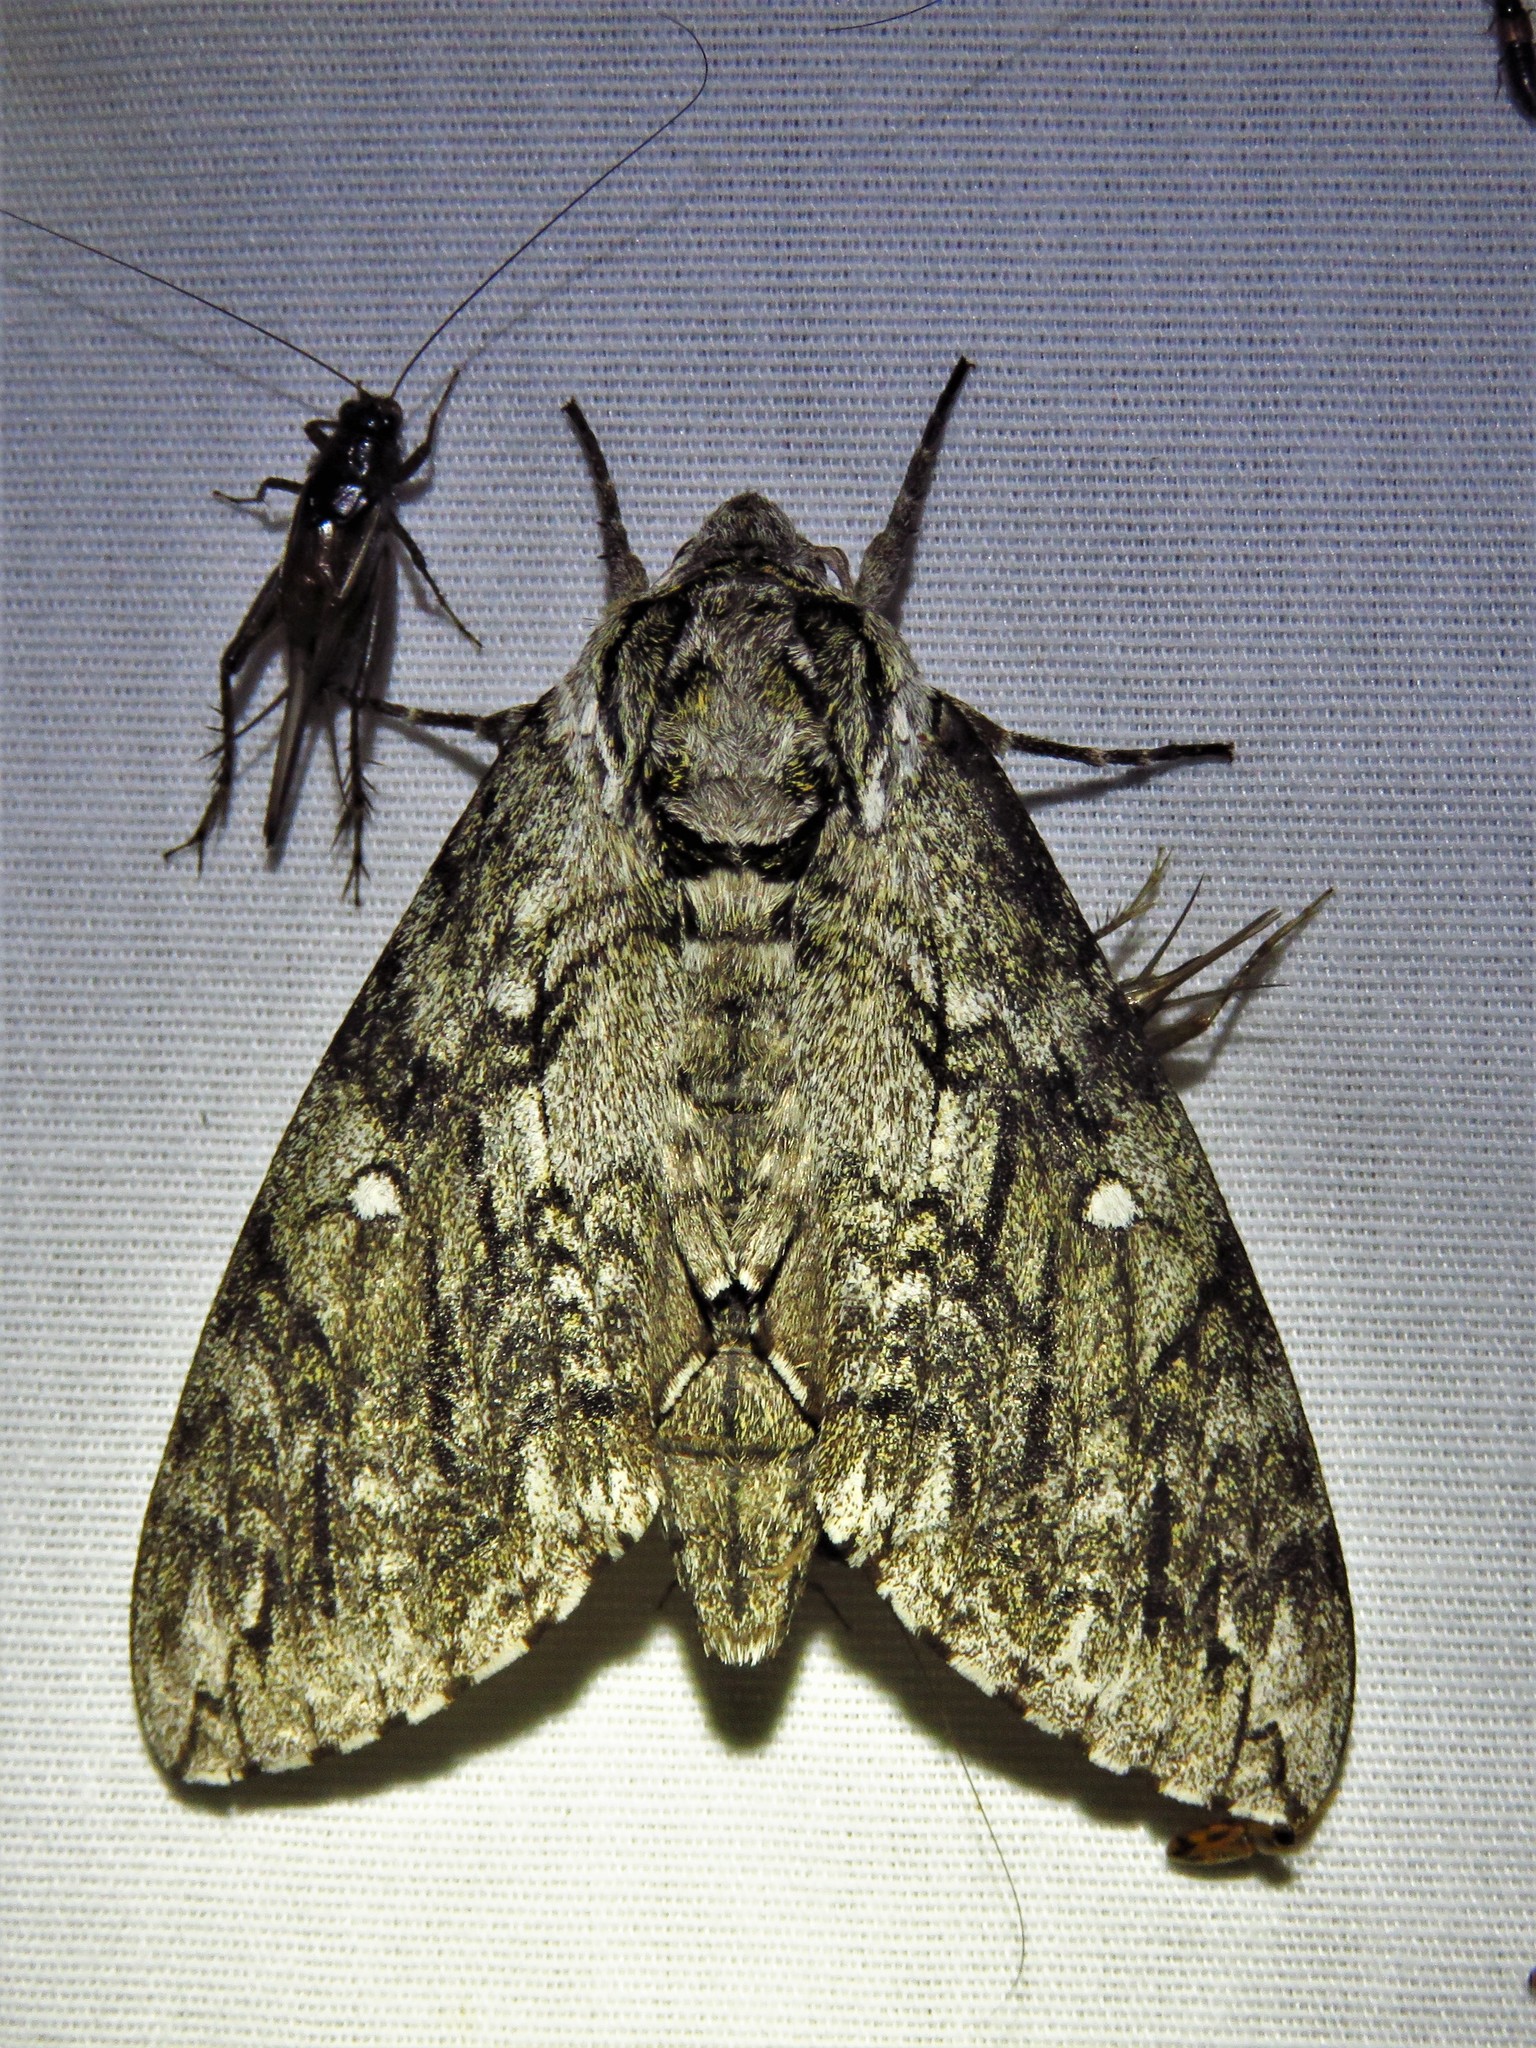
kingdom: Animalia
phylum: Arthropoda
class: Insecta
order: Lepidoptera
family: Sphingidae
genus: Ceratomia
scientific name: Ceratomia undulosa
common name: Waved sphinx
